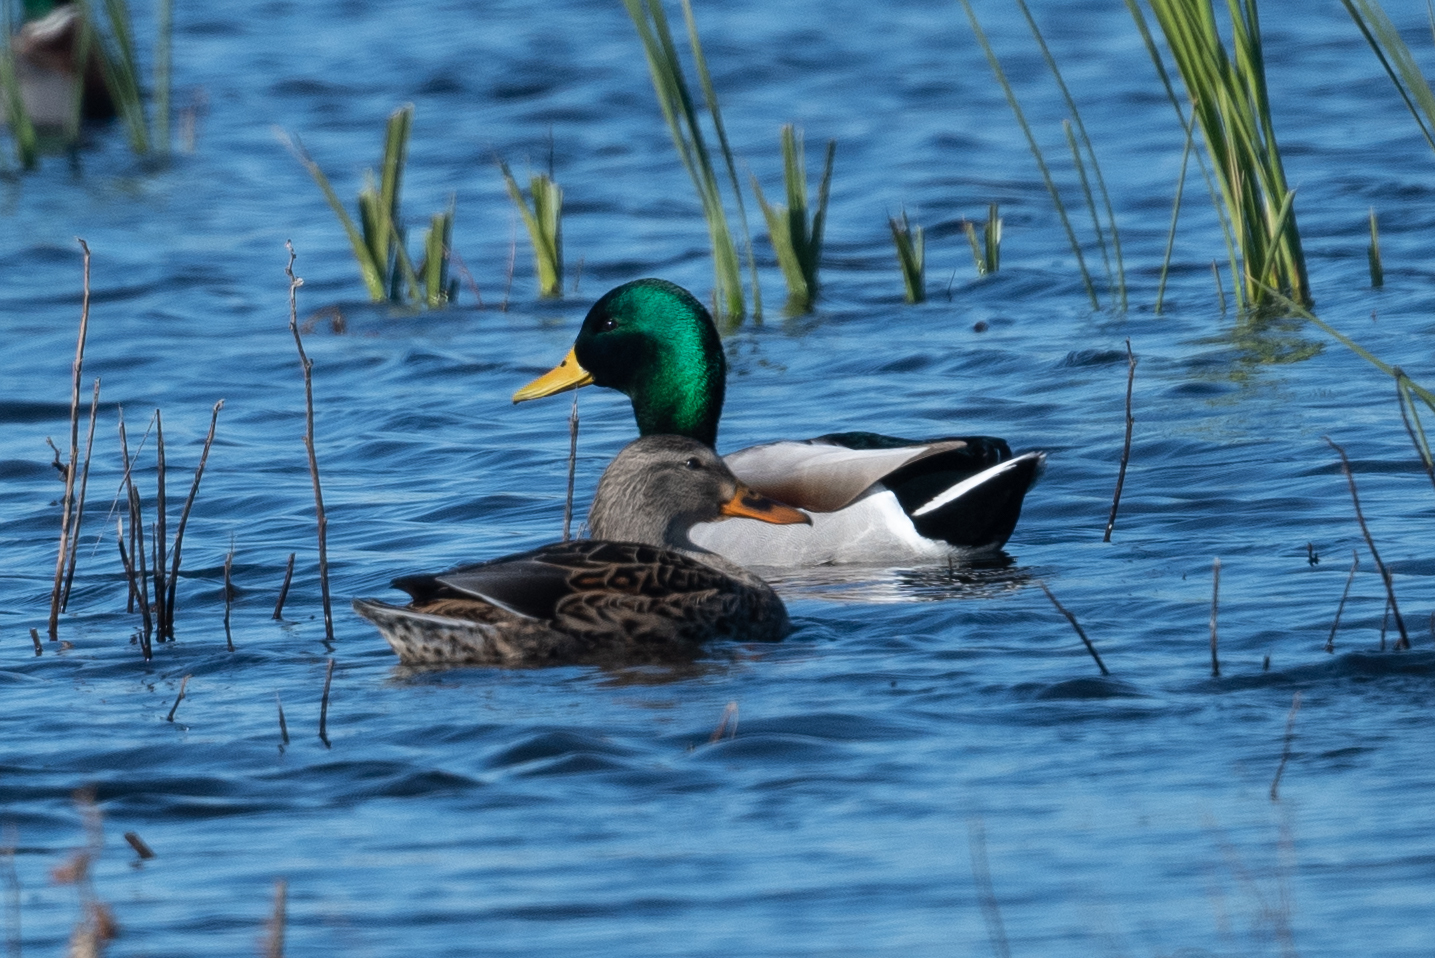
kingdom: Animalia
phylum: Chordata
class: Aves
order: Anseriformes
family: Anatidae
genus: Anas
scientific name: Anas platyrhynchos
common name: Mallard
